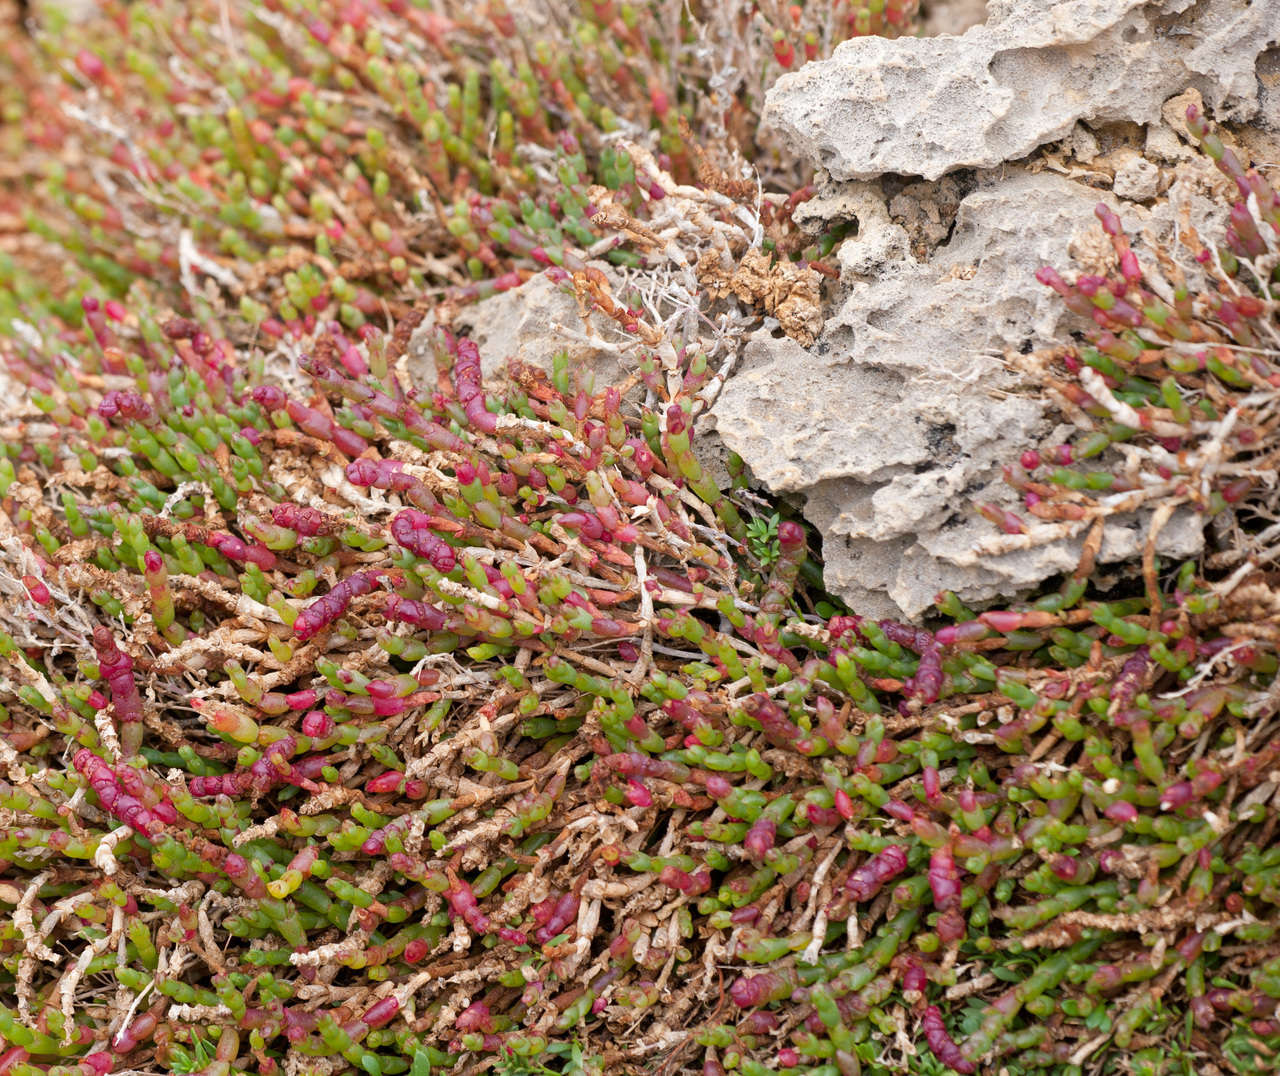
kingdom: Plantae
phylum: Tracheophyta
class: Magnoliopsida
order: Caryophyllales
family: Amaranthaceae
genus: Salicornia
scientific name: Salicornia quinqueflora
